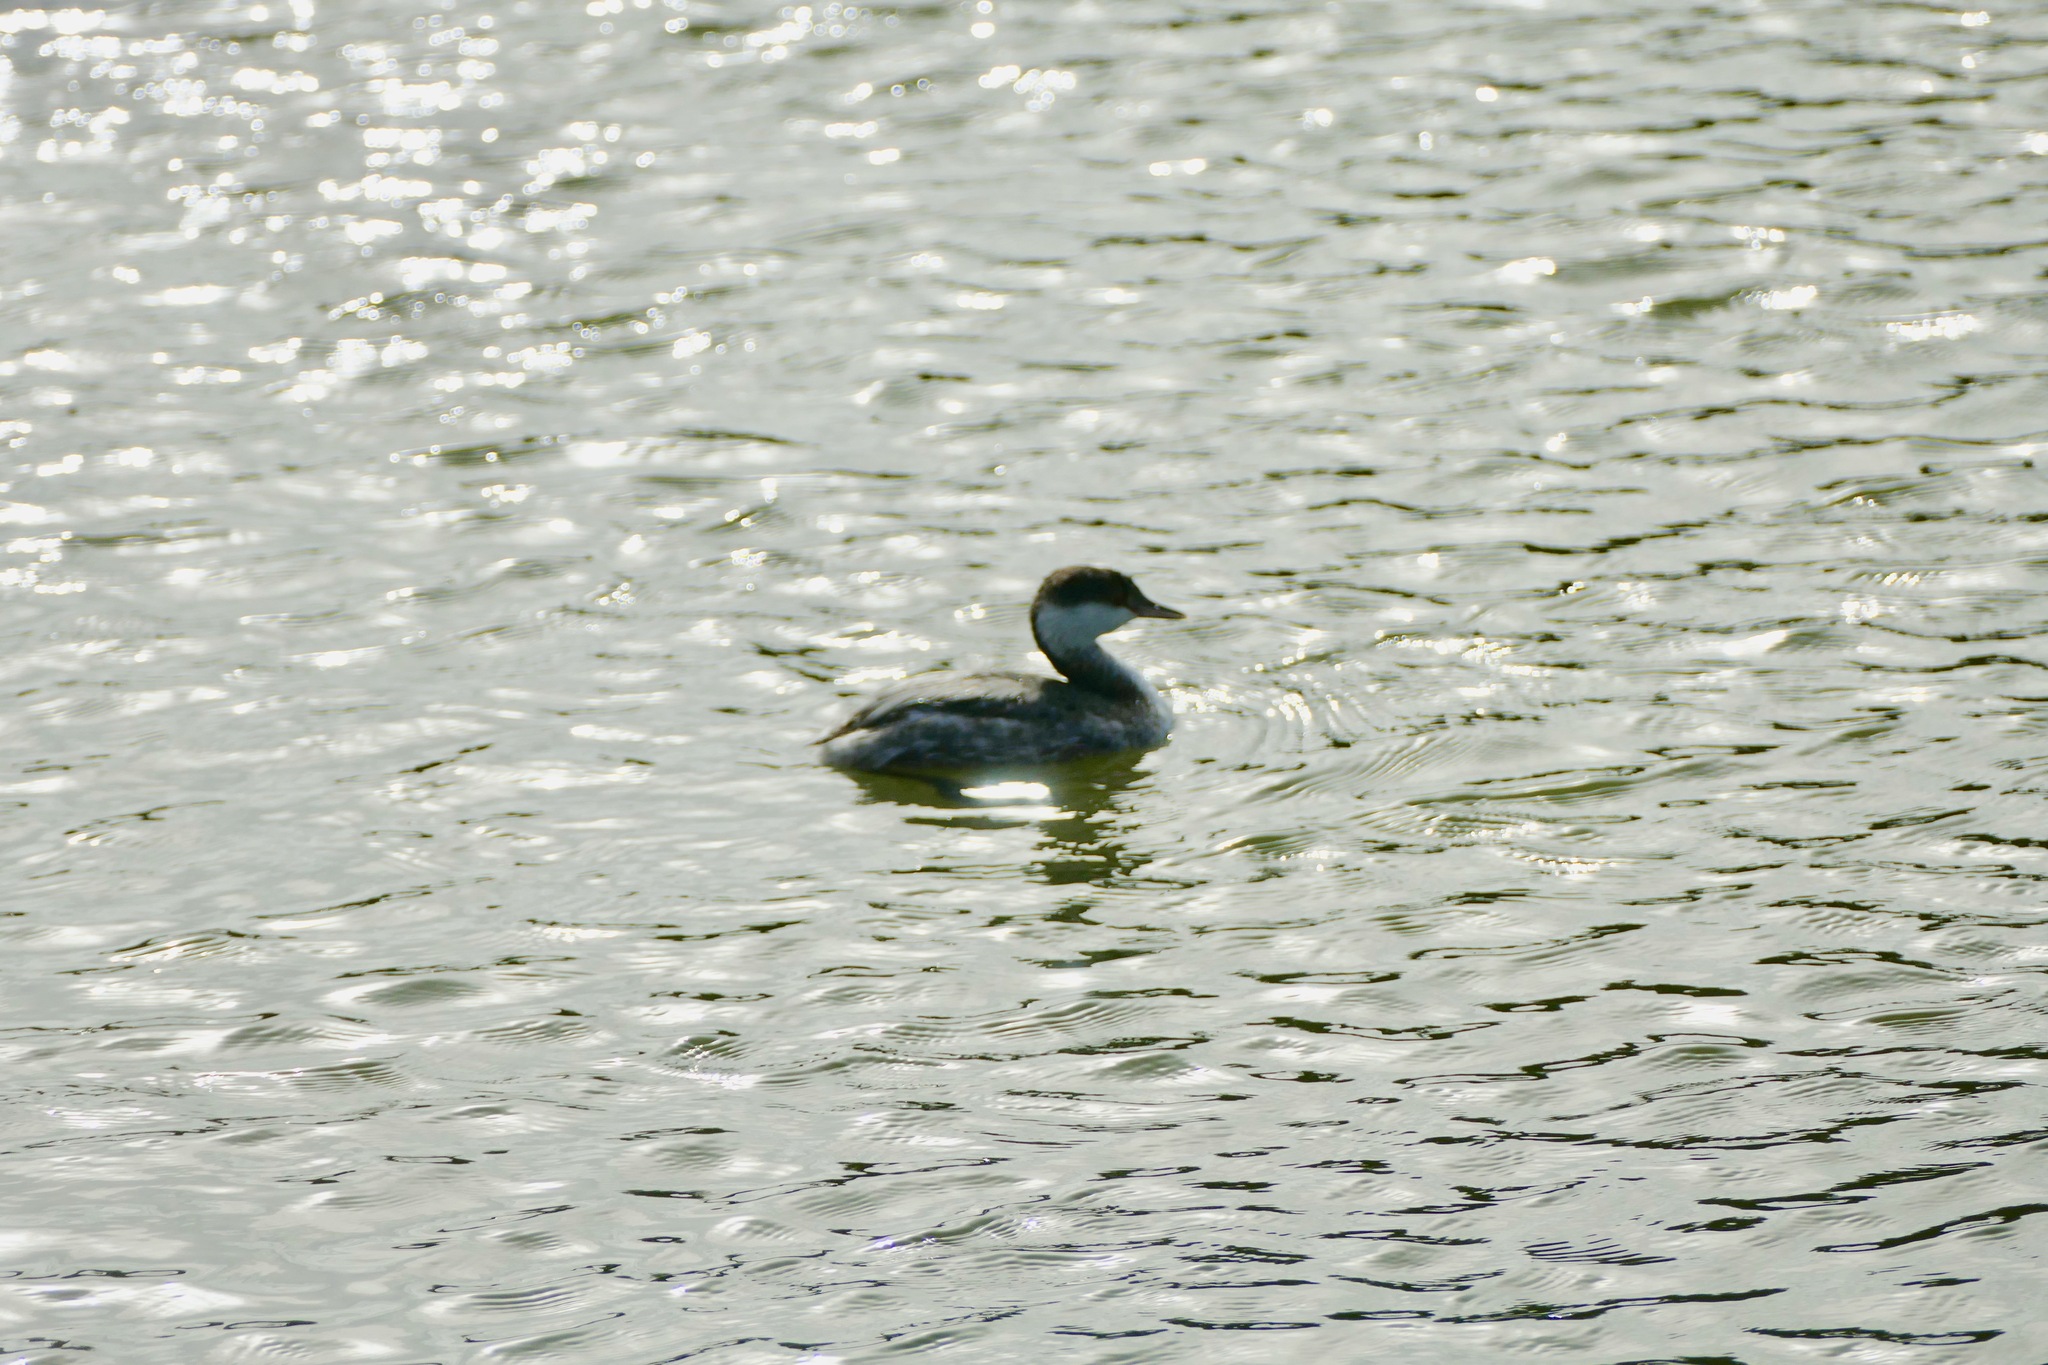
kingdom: Animalia
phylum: Chordata
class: Aves
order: Podicipediformes
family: Podicipedidae
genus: Podiceps
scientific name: Podiceps auritus
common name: Horned grebe
